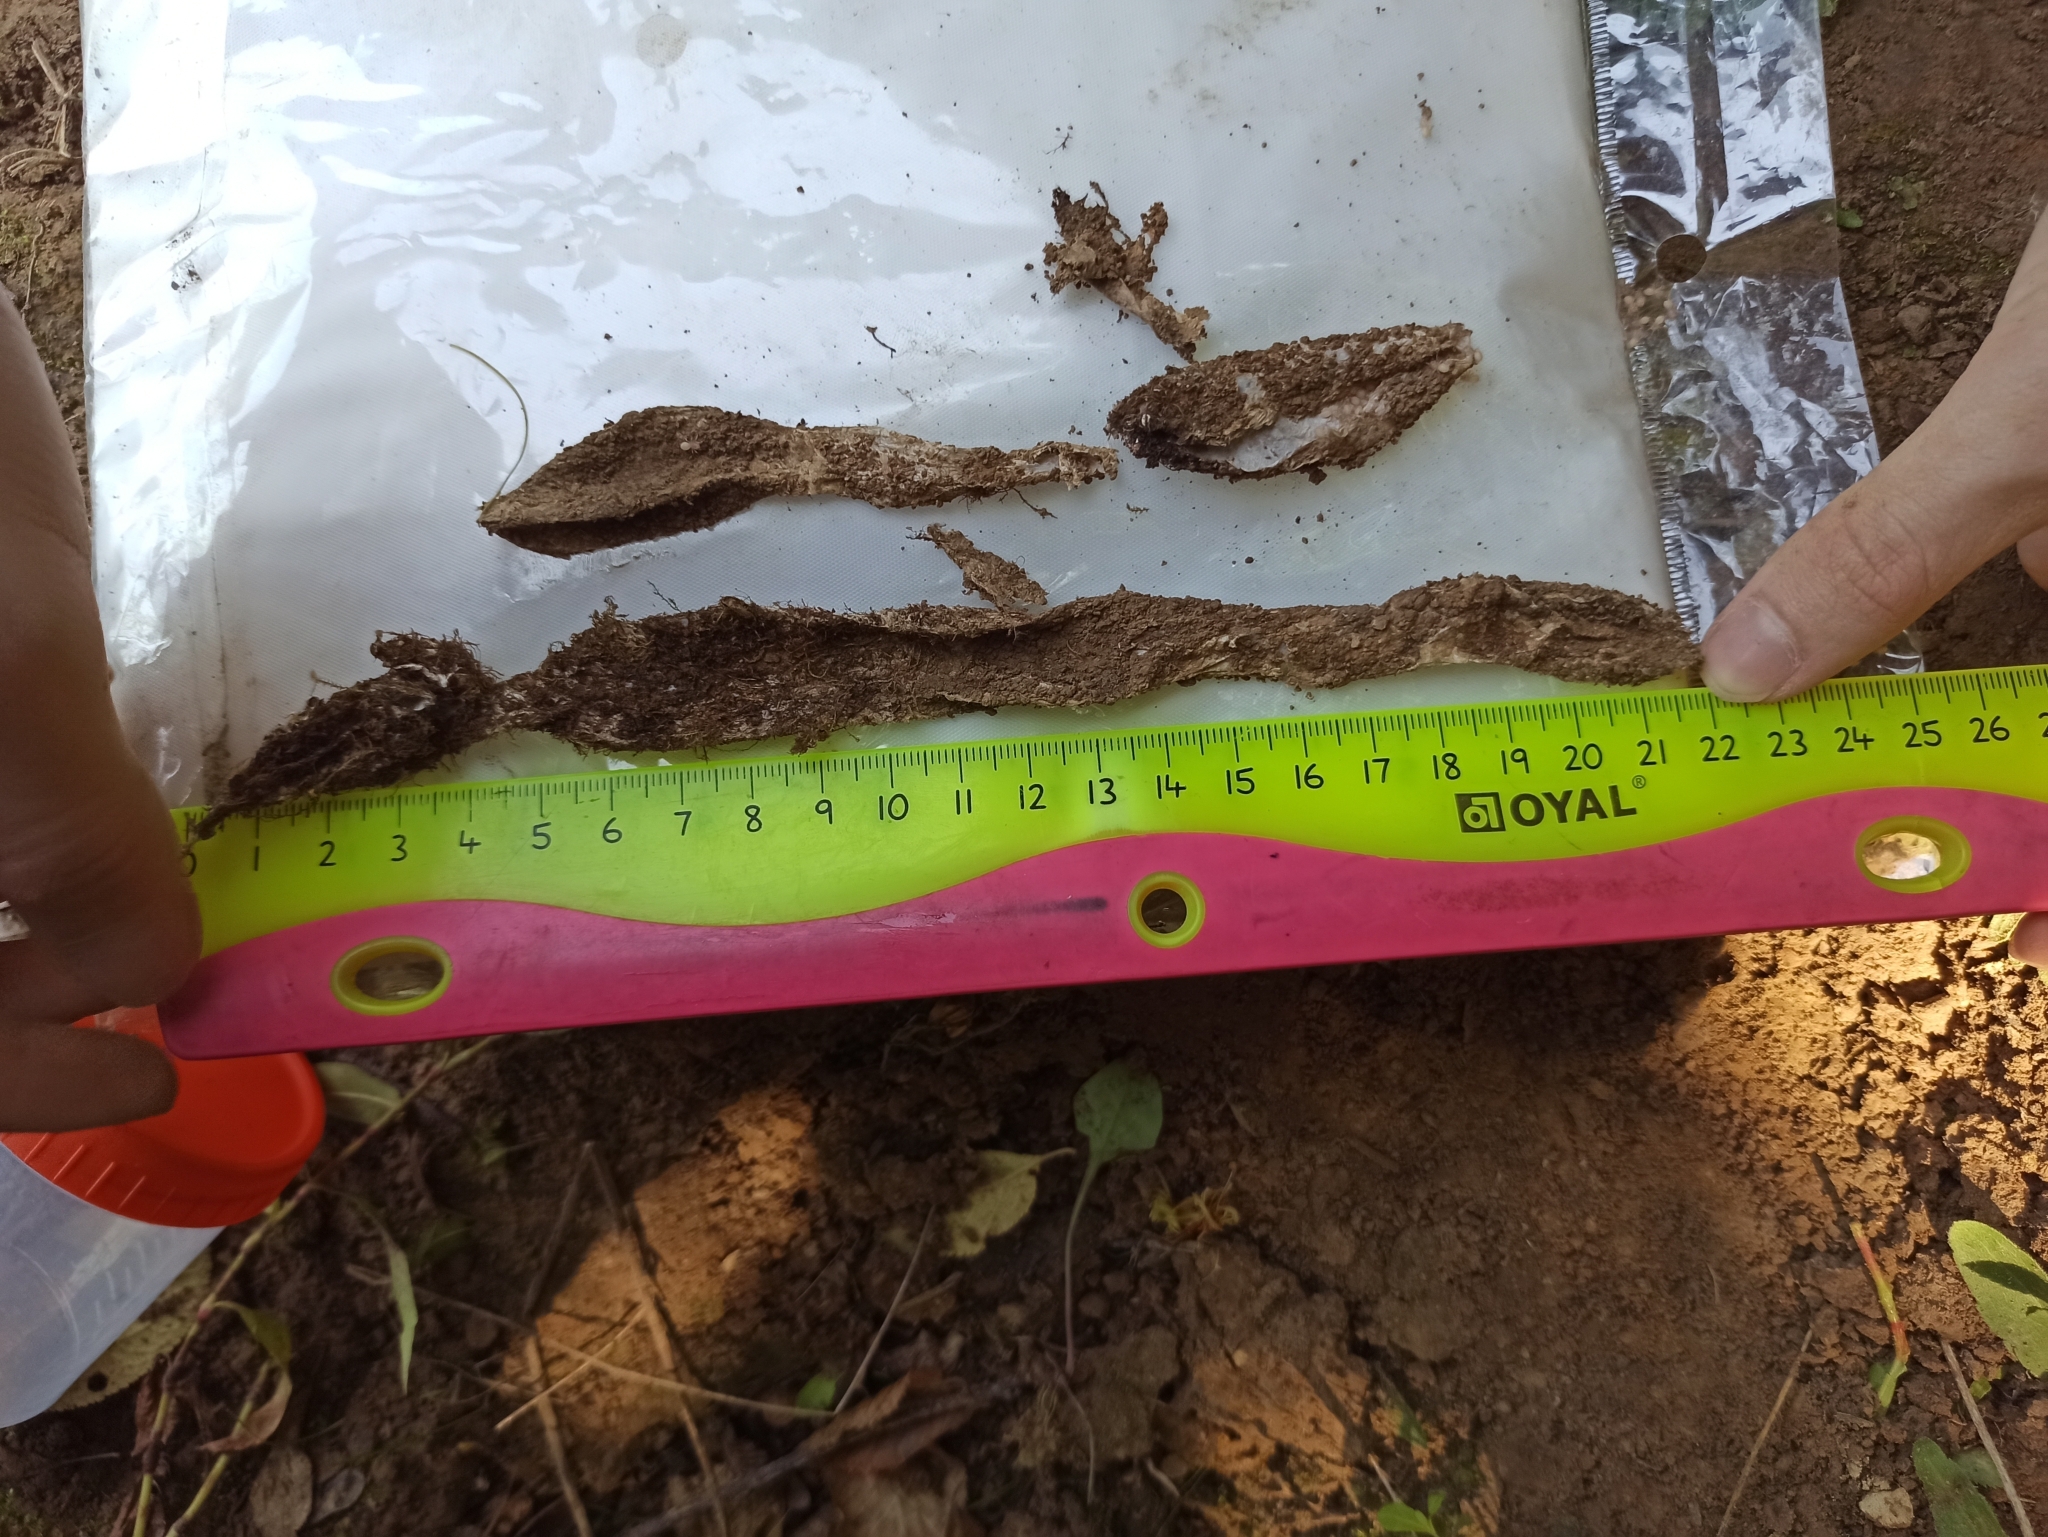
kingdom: Animalia
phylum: Arthropoda
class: Arachnida
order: Araneae
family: Atypidae
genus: Atypus
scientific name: Atypus muralis
